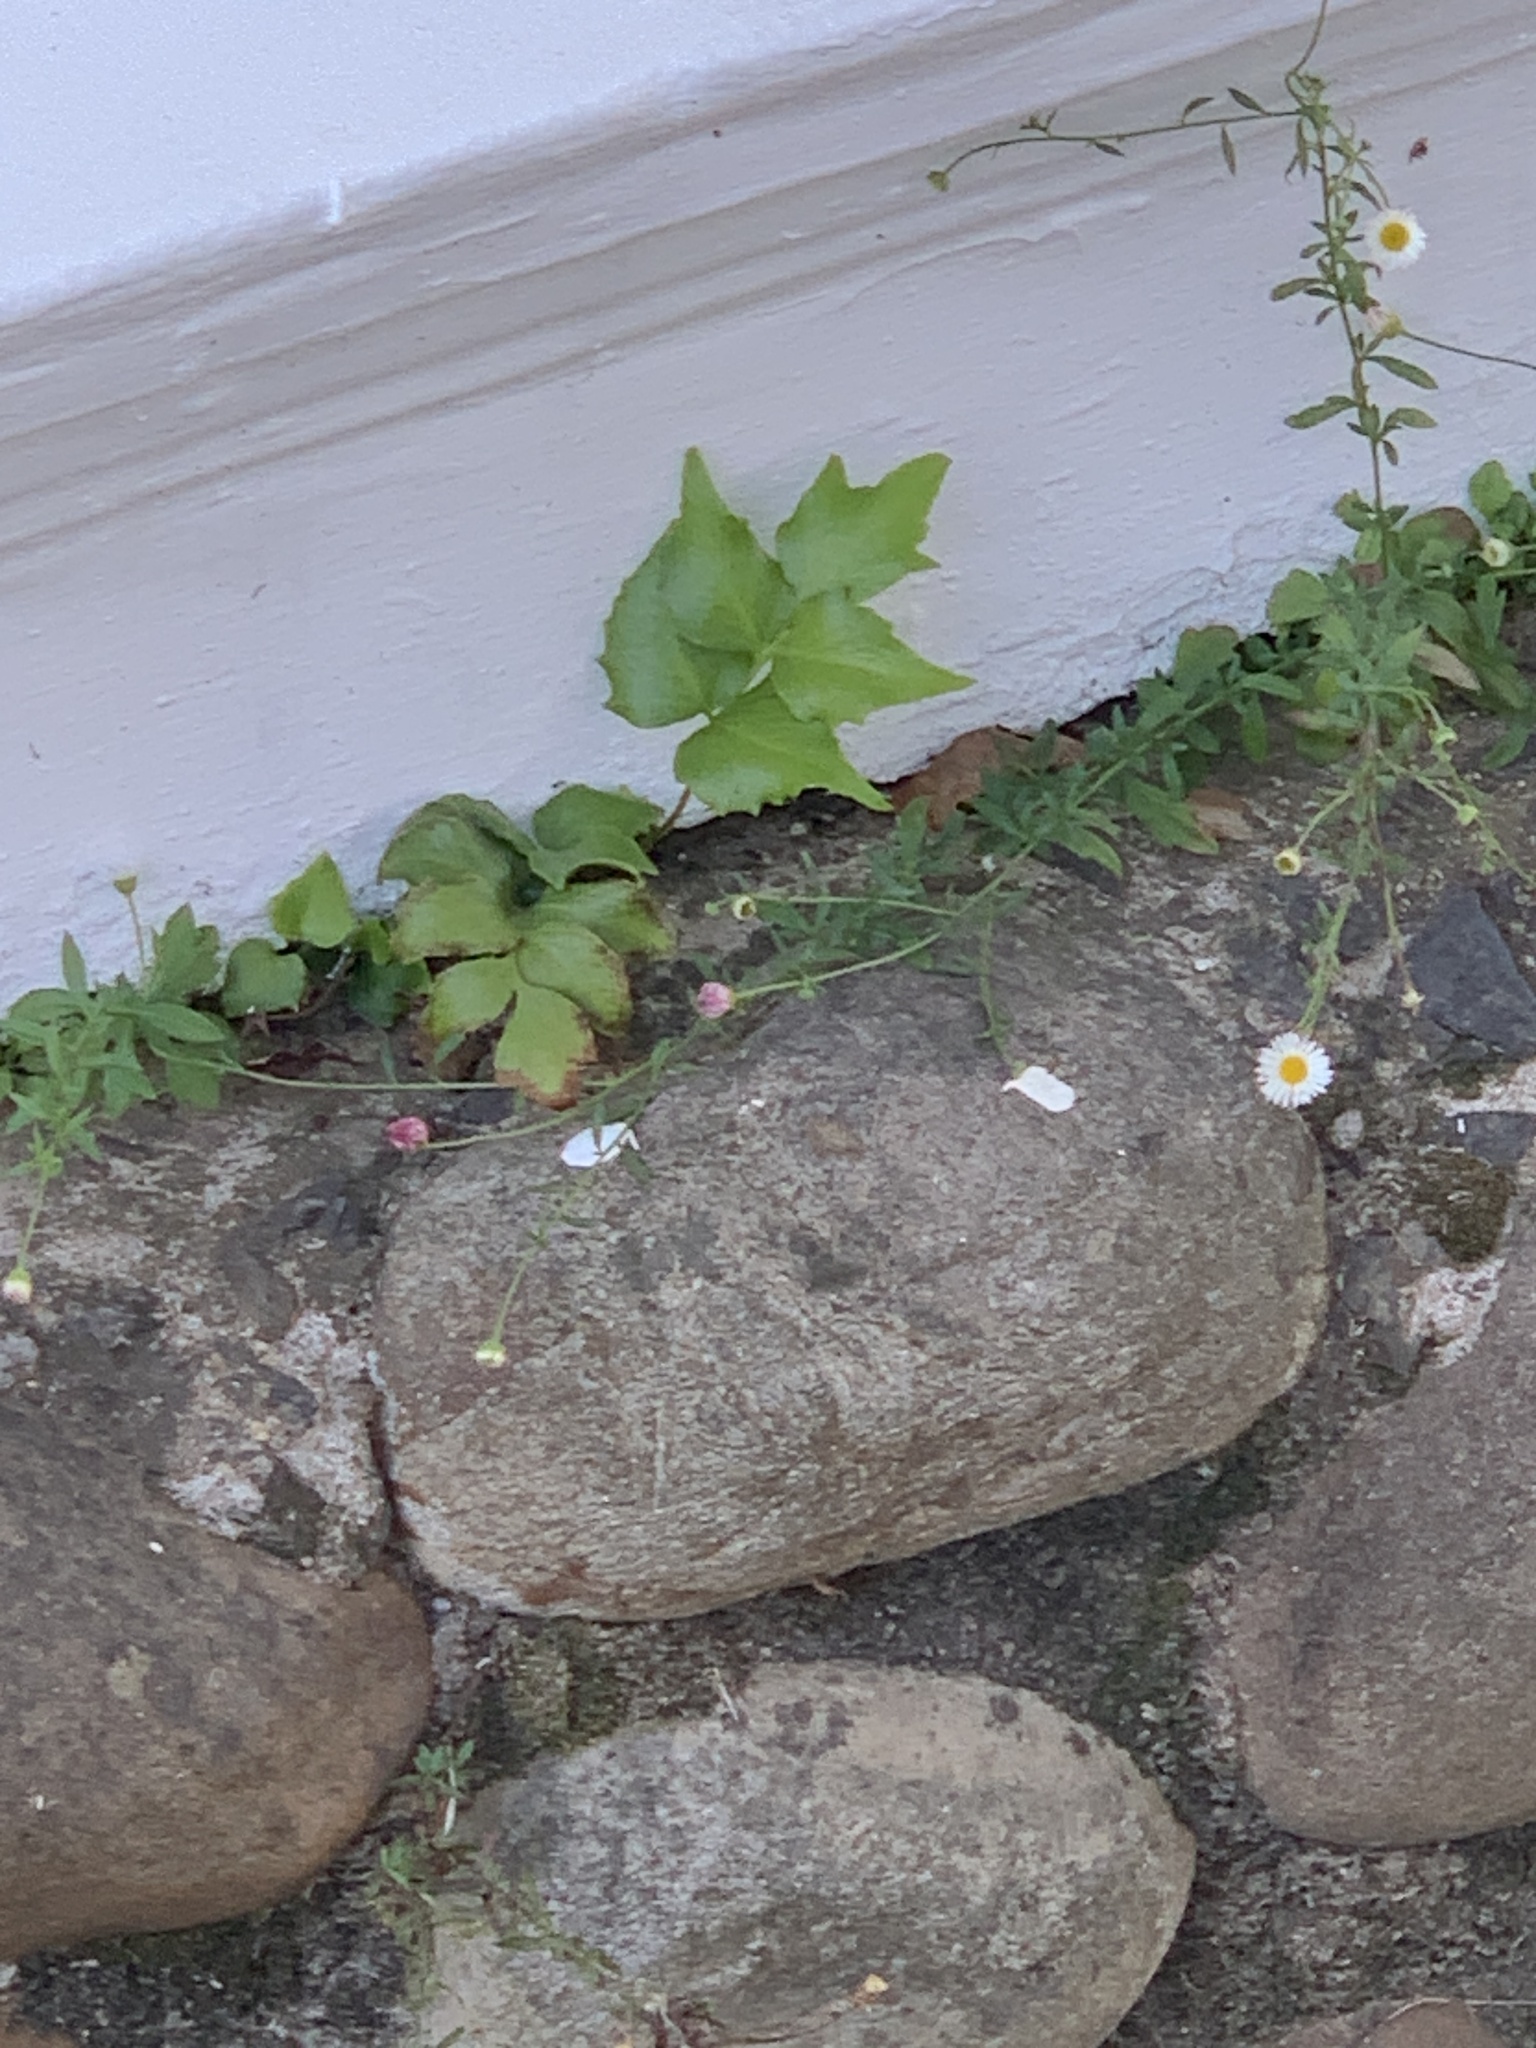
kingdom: Plantae
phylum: Tracheophyta
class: Polypodiopsida
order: Polypodiales
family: Dryopteridaceae
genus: Cyrtomium
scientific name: Cyrtomium falcatum
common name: House holly-fern
